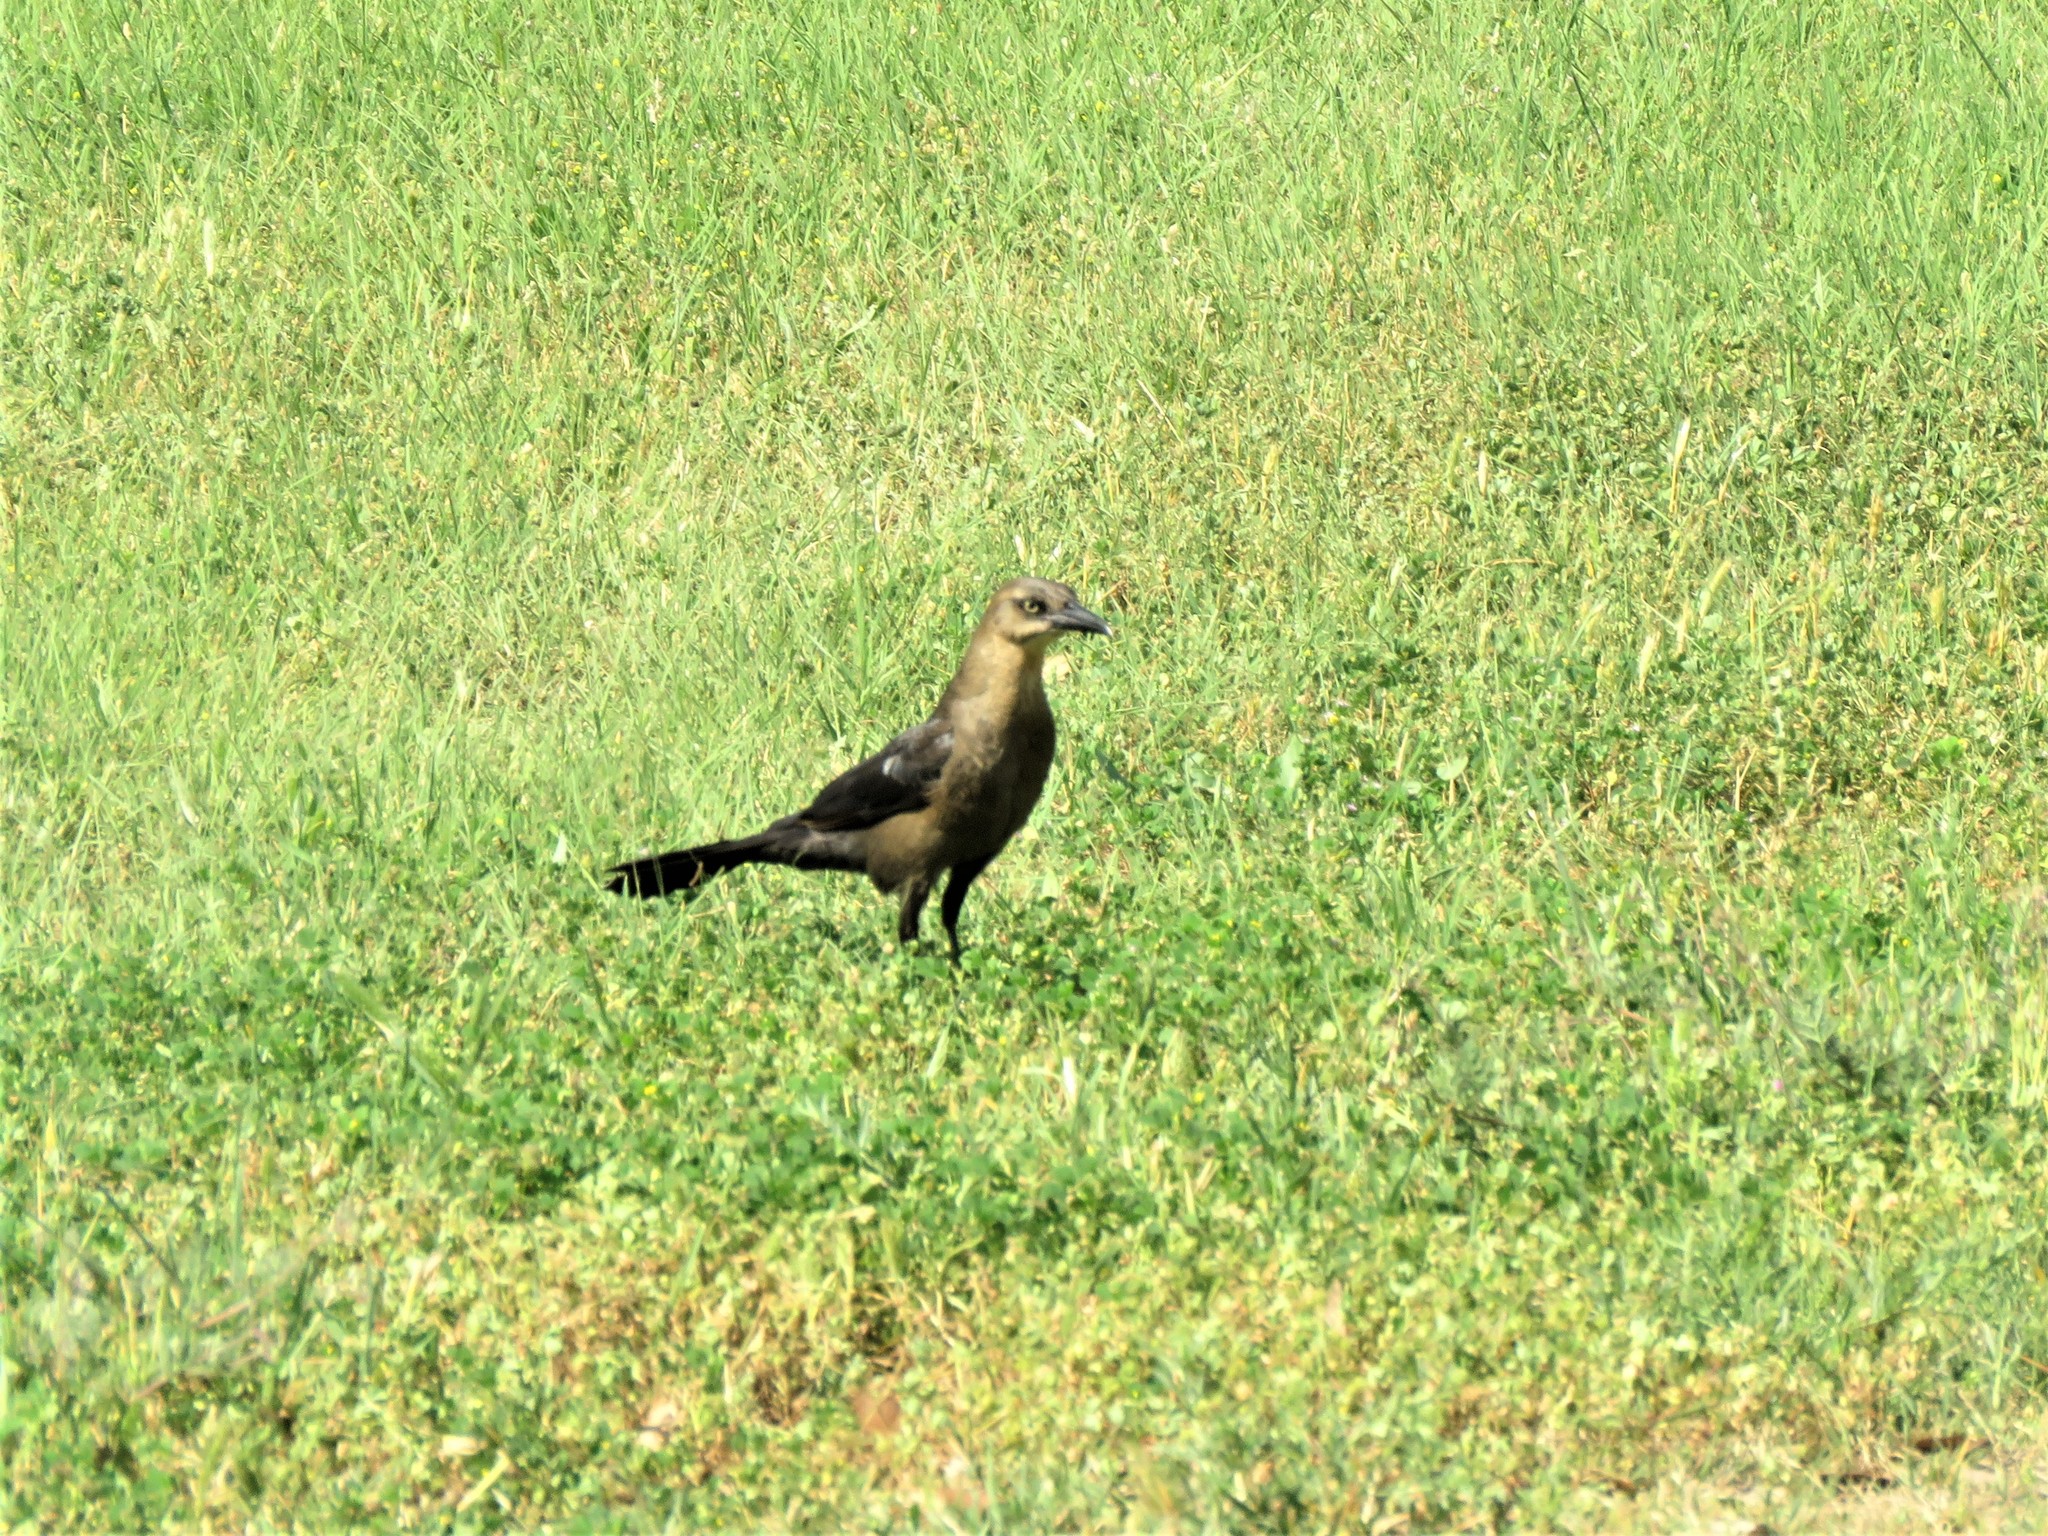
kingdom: Animalia
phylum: Chordata
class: Aves
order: Passeriformes
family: Icteridae
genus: Quiscalus
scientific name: Quiscalus mexicanus
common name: Great-tailed grackle
